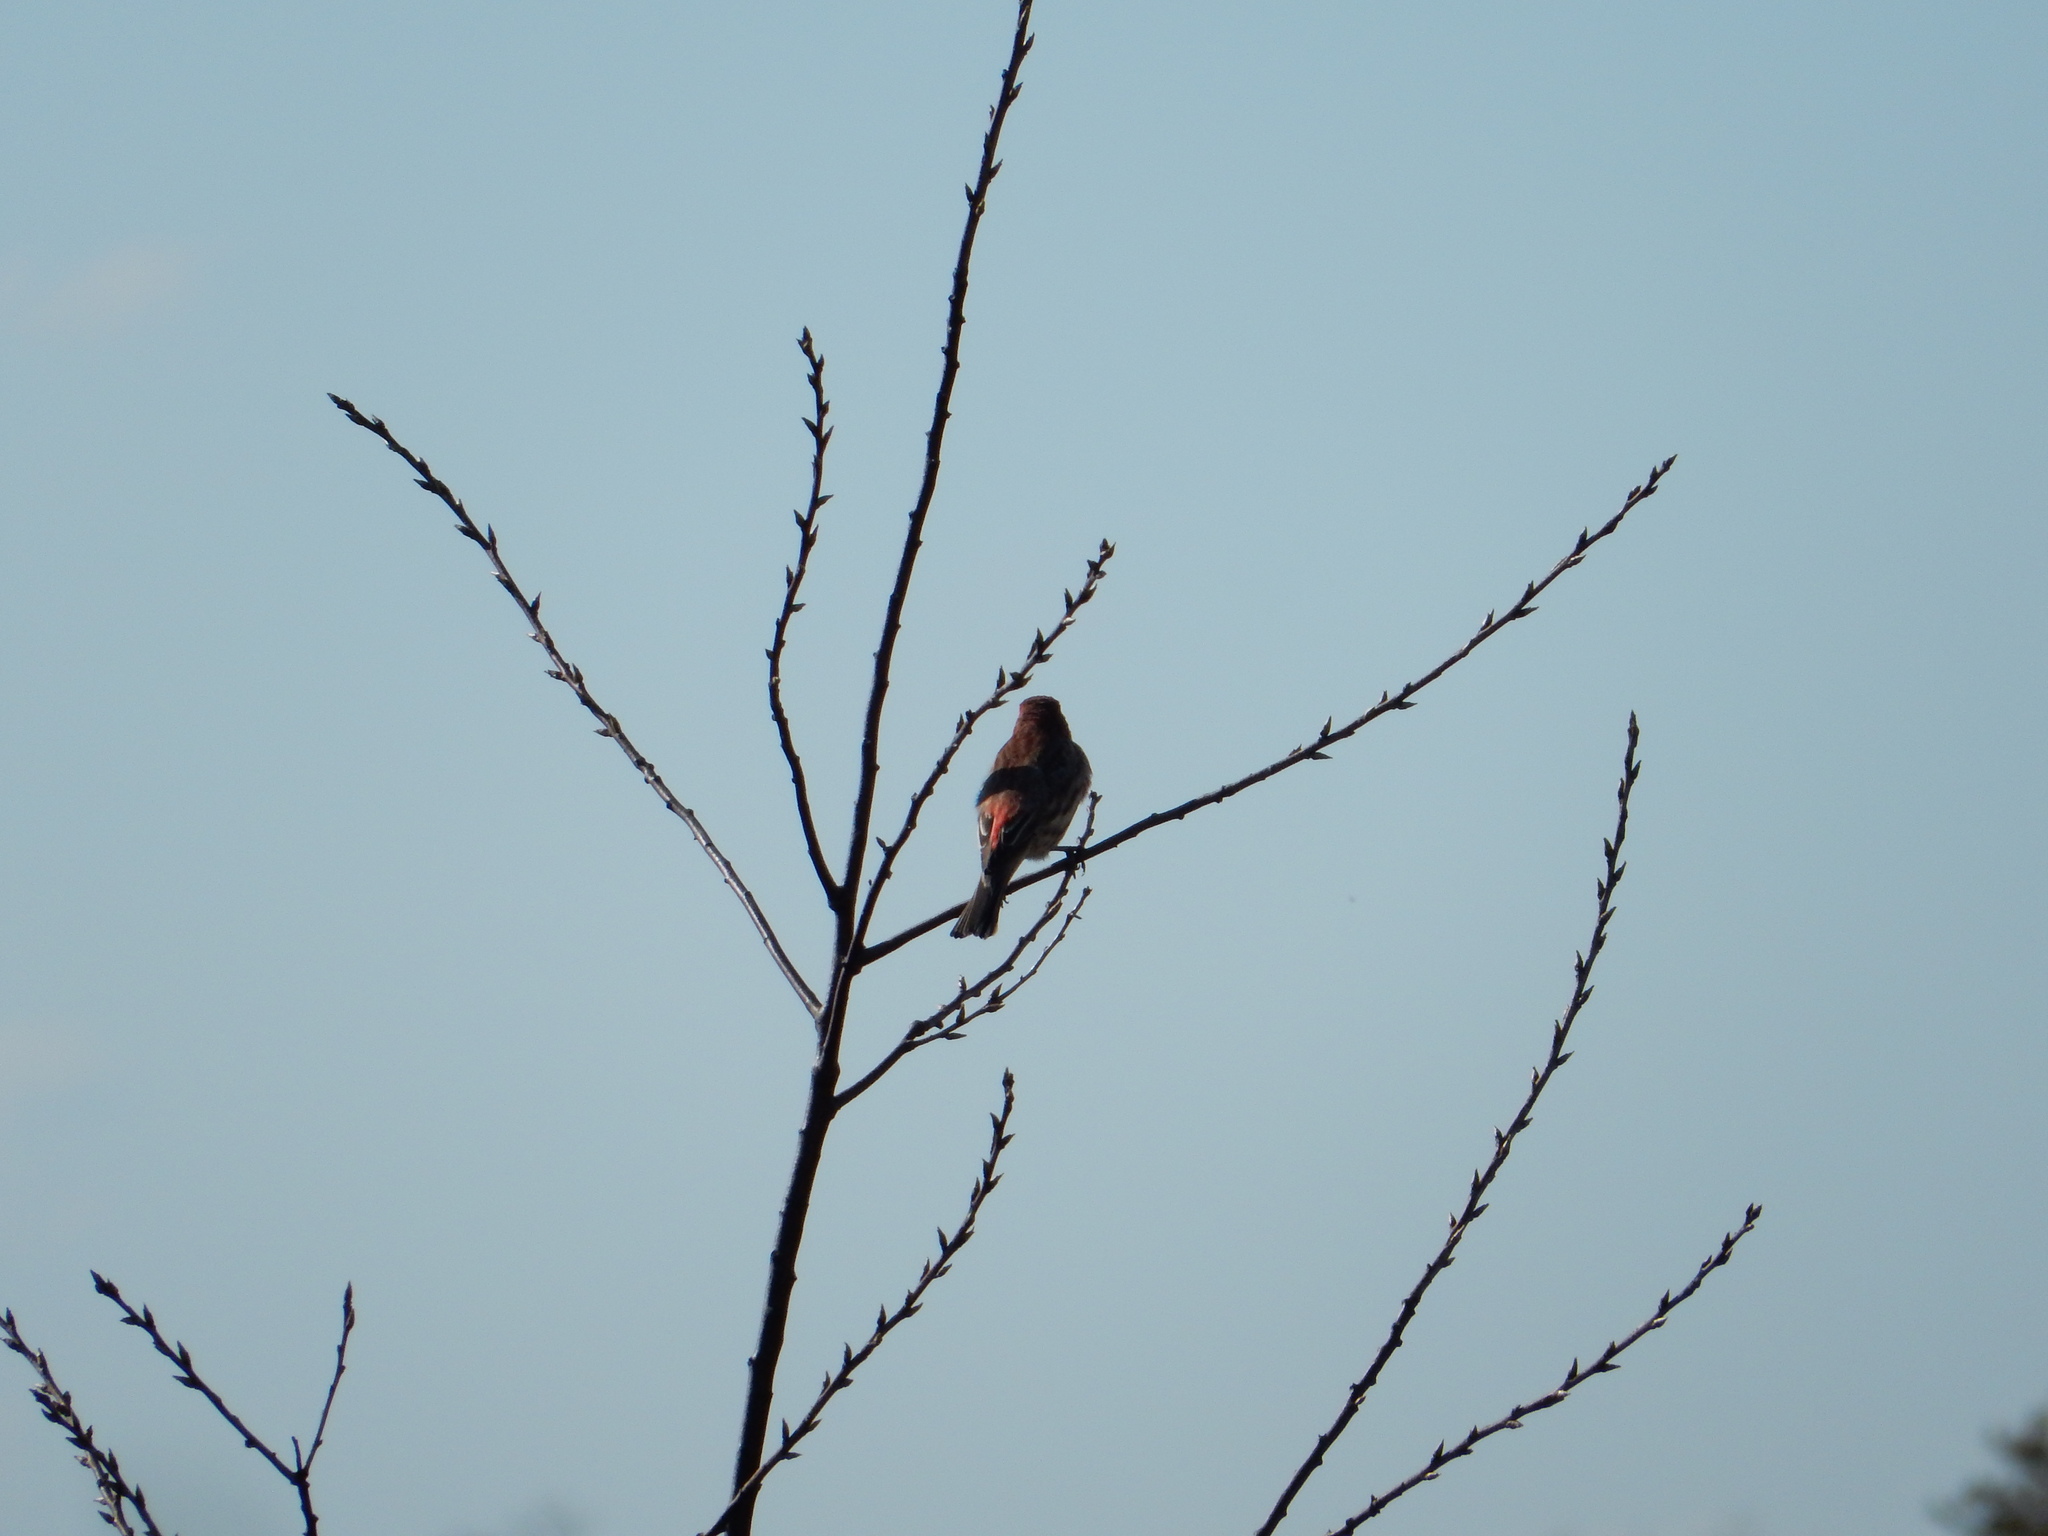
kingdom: Animalia
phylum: Chordata
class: Aves
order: Passeriformes
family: Fringillidae
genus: Haemorhous
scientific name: Haemorhous mexicanus
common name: House finch
